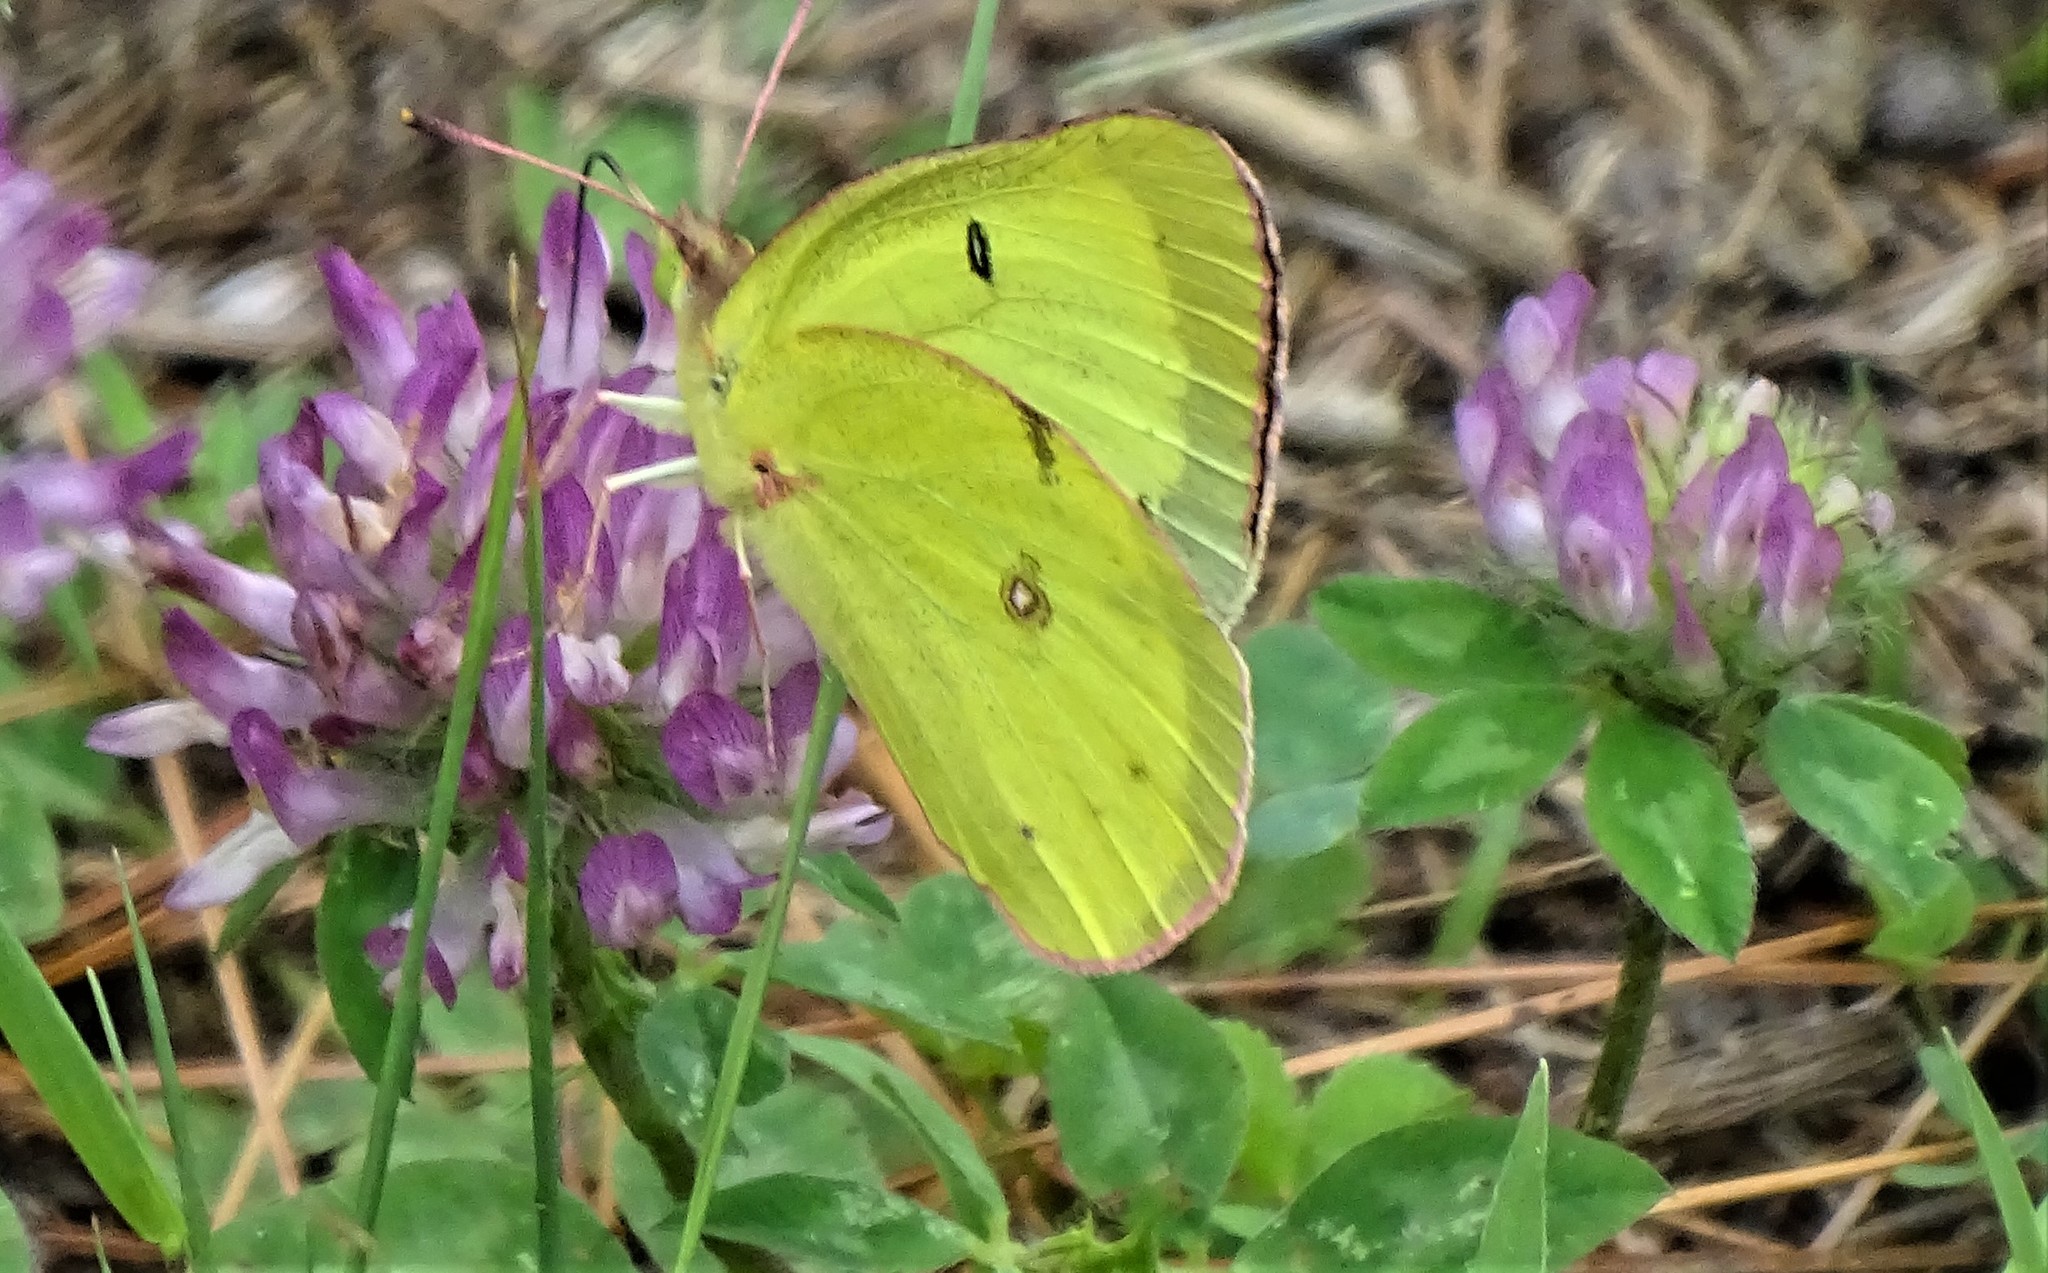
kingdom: Animalia
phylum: Arthropoda
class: Insecta
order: Lepidoptera
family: Pieridae
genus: Colias
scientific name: Colias philodice
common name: Clouded sulphur
